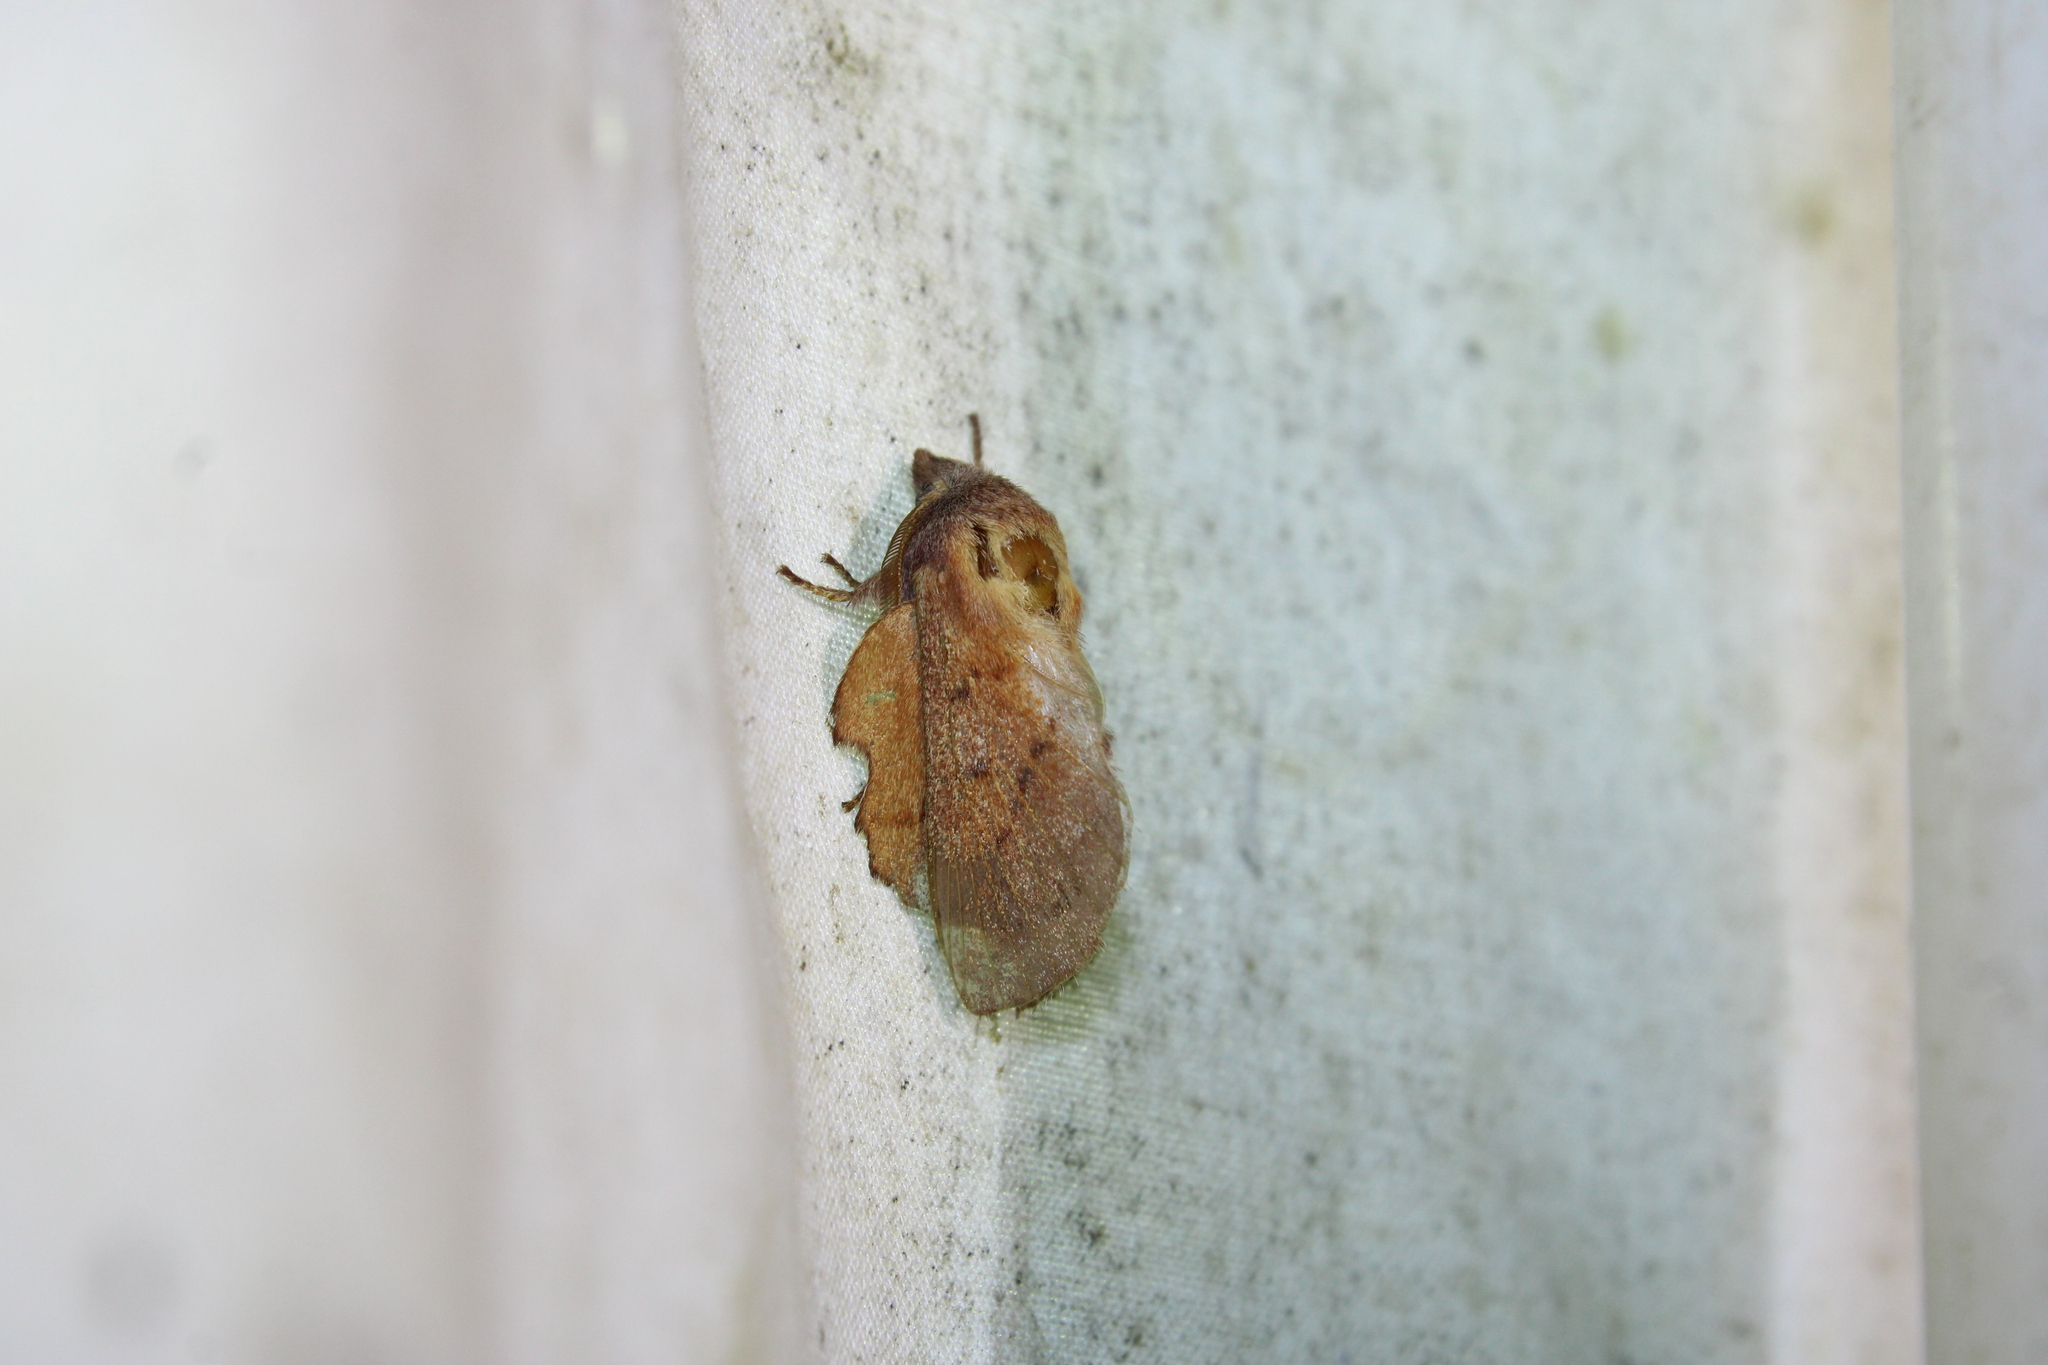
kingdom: Animalia
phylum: Arthropoda
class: Insecta
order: Lepidoptera
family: Lasiocampidae
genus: Phyllodesma
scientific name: Phyllodesma americana
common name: American lappet moth
